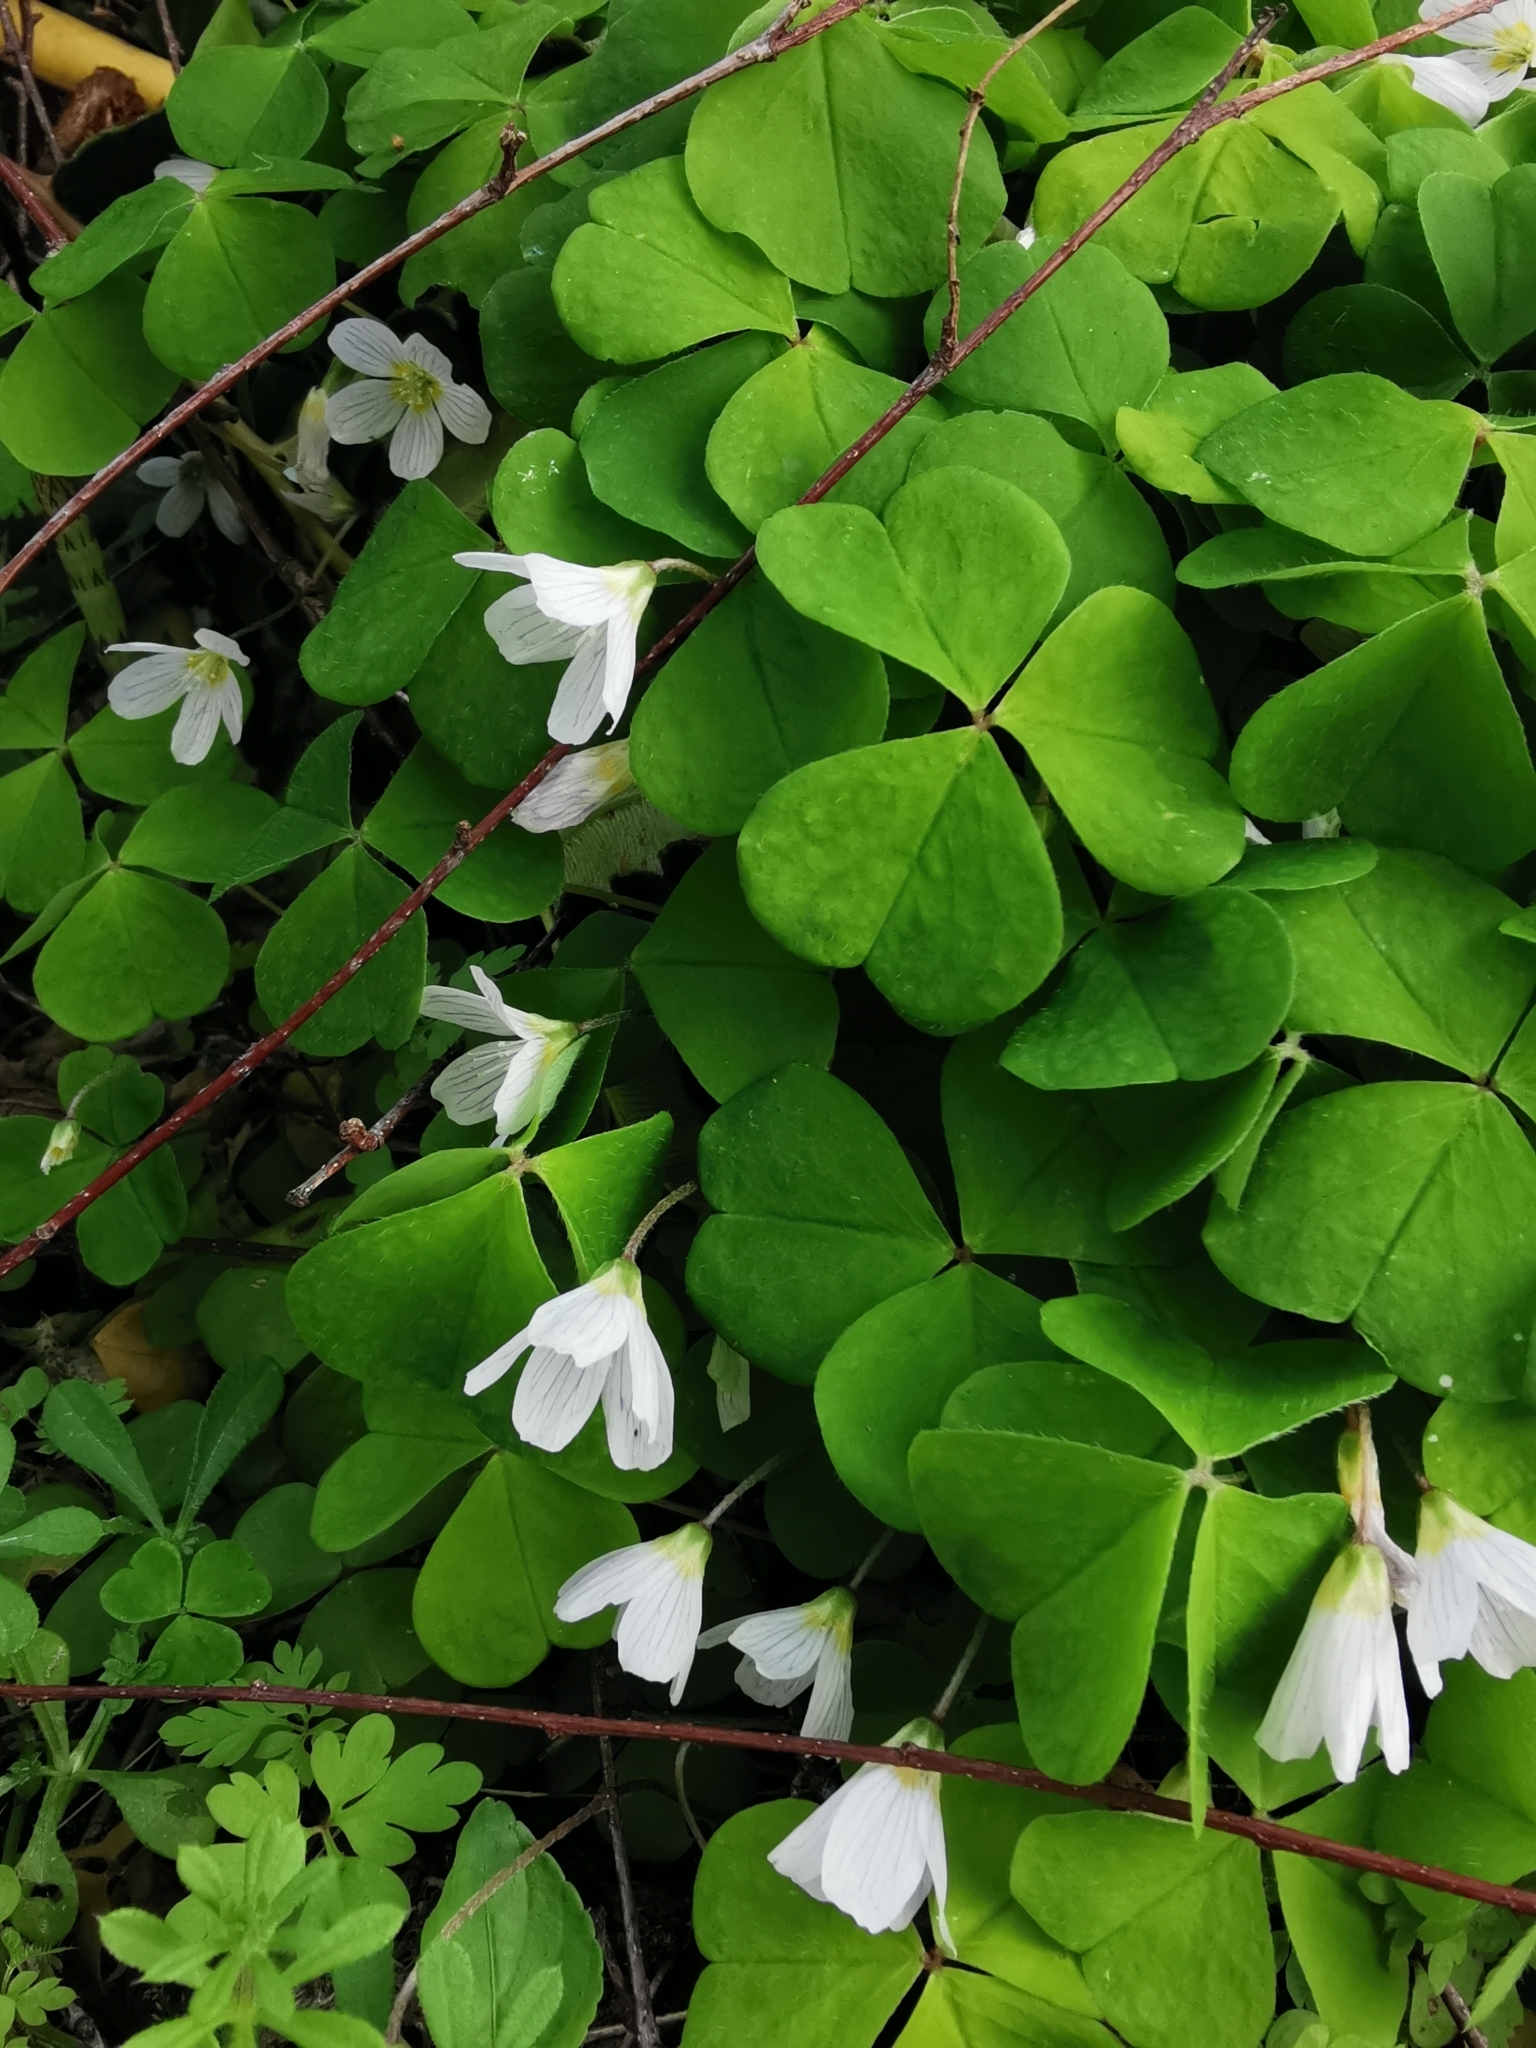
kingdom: Plantae
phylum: Tracheophyta
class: Magnoliopsida
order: Oxalidales
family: Oxalidaceae
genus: Oxalis
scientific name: Oxalis acetosella
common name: Wood-sorrel
